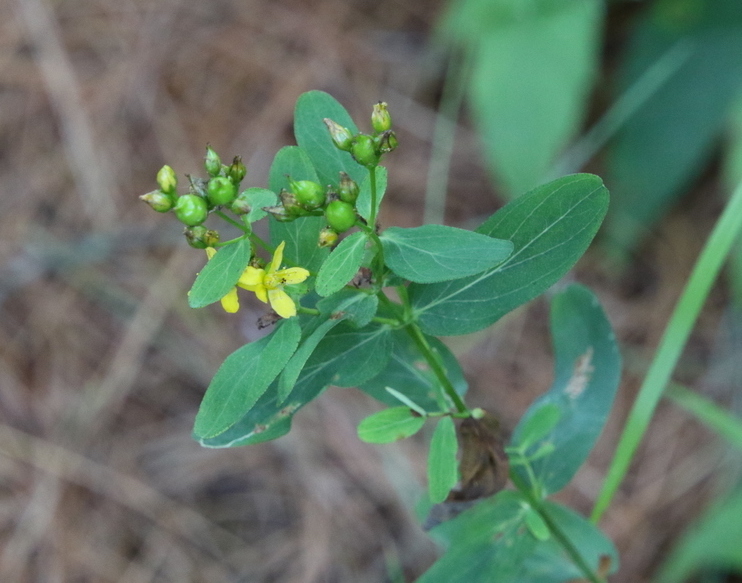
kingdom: Plantae
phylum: Tracheophyta
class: Magnoliopsida
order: Malpighiales
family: Hypericaceae
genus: Hypericum
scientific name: Hypericum punctatum
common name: Spotted st. john's-wort
